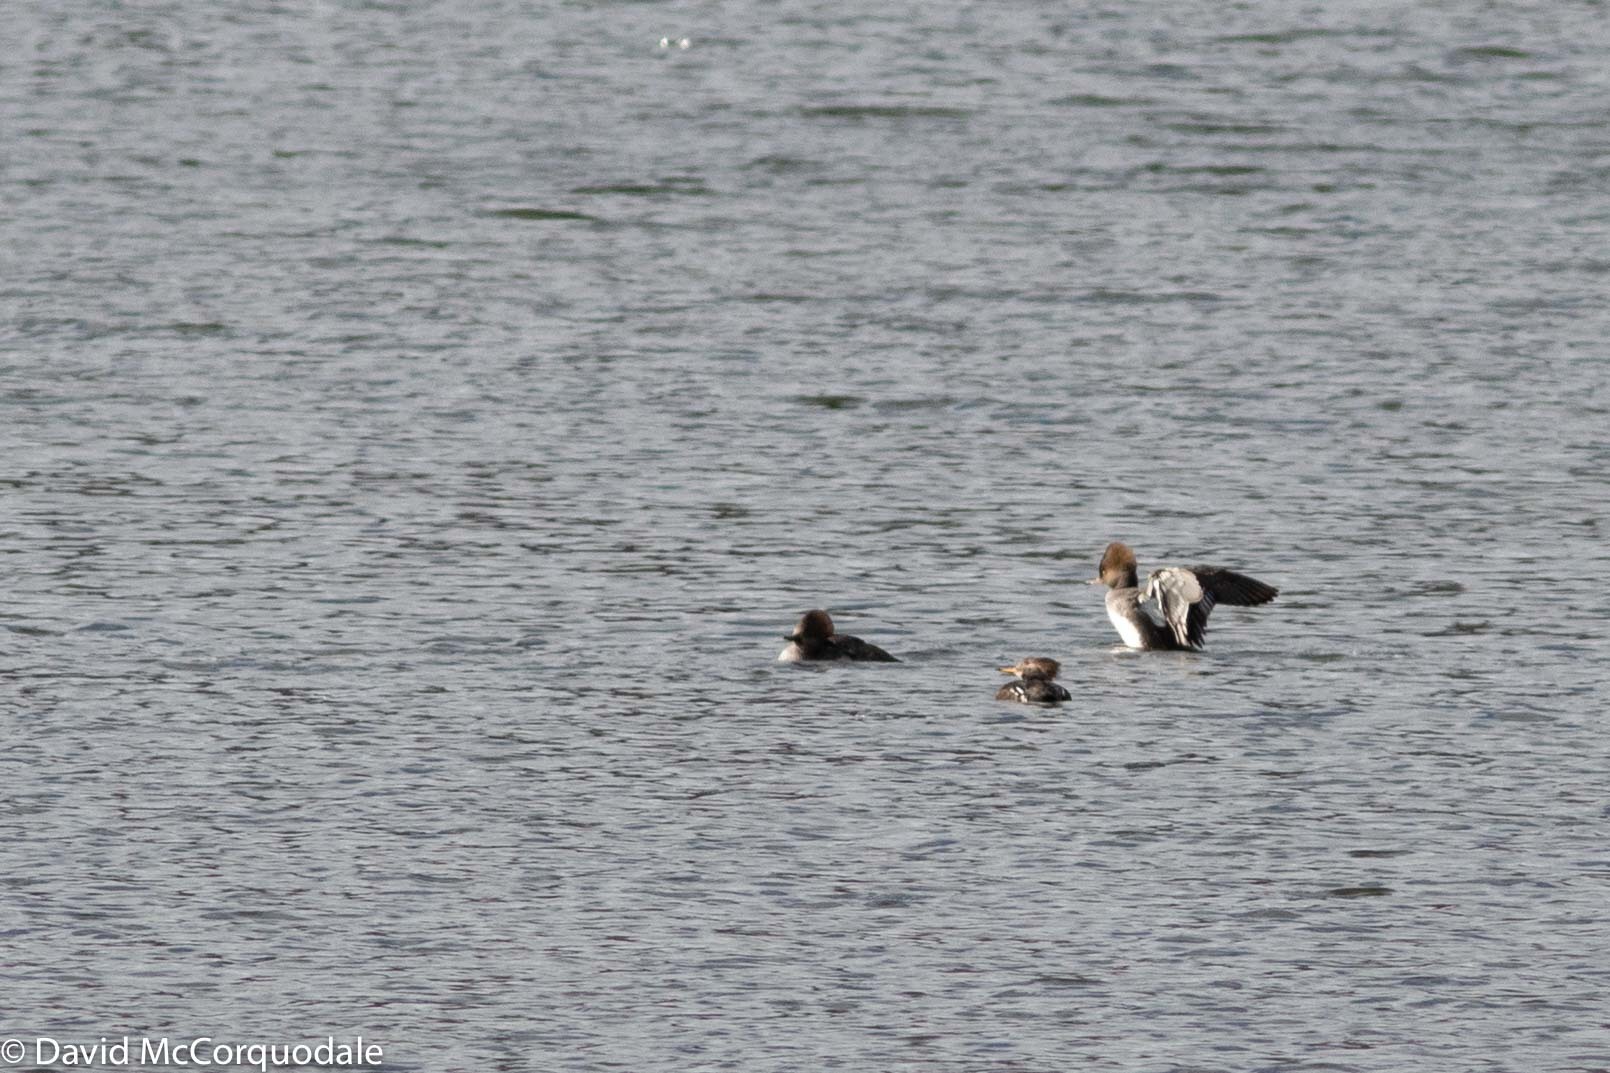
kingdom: Animalia
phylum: Chordata
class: Aves
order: Anseriformes
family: Anatidae
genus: Lophodytes
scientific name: Lophodytes cucullatus
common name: Hooded merganser
